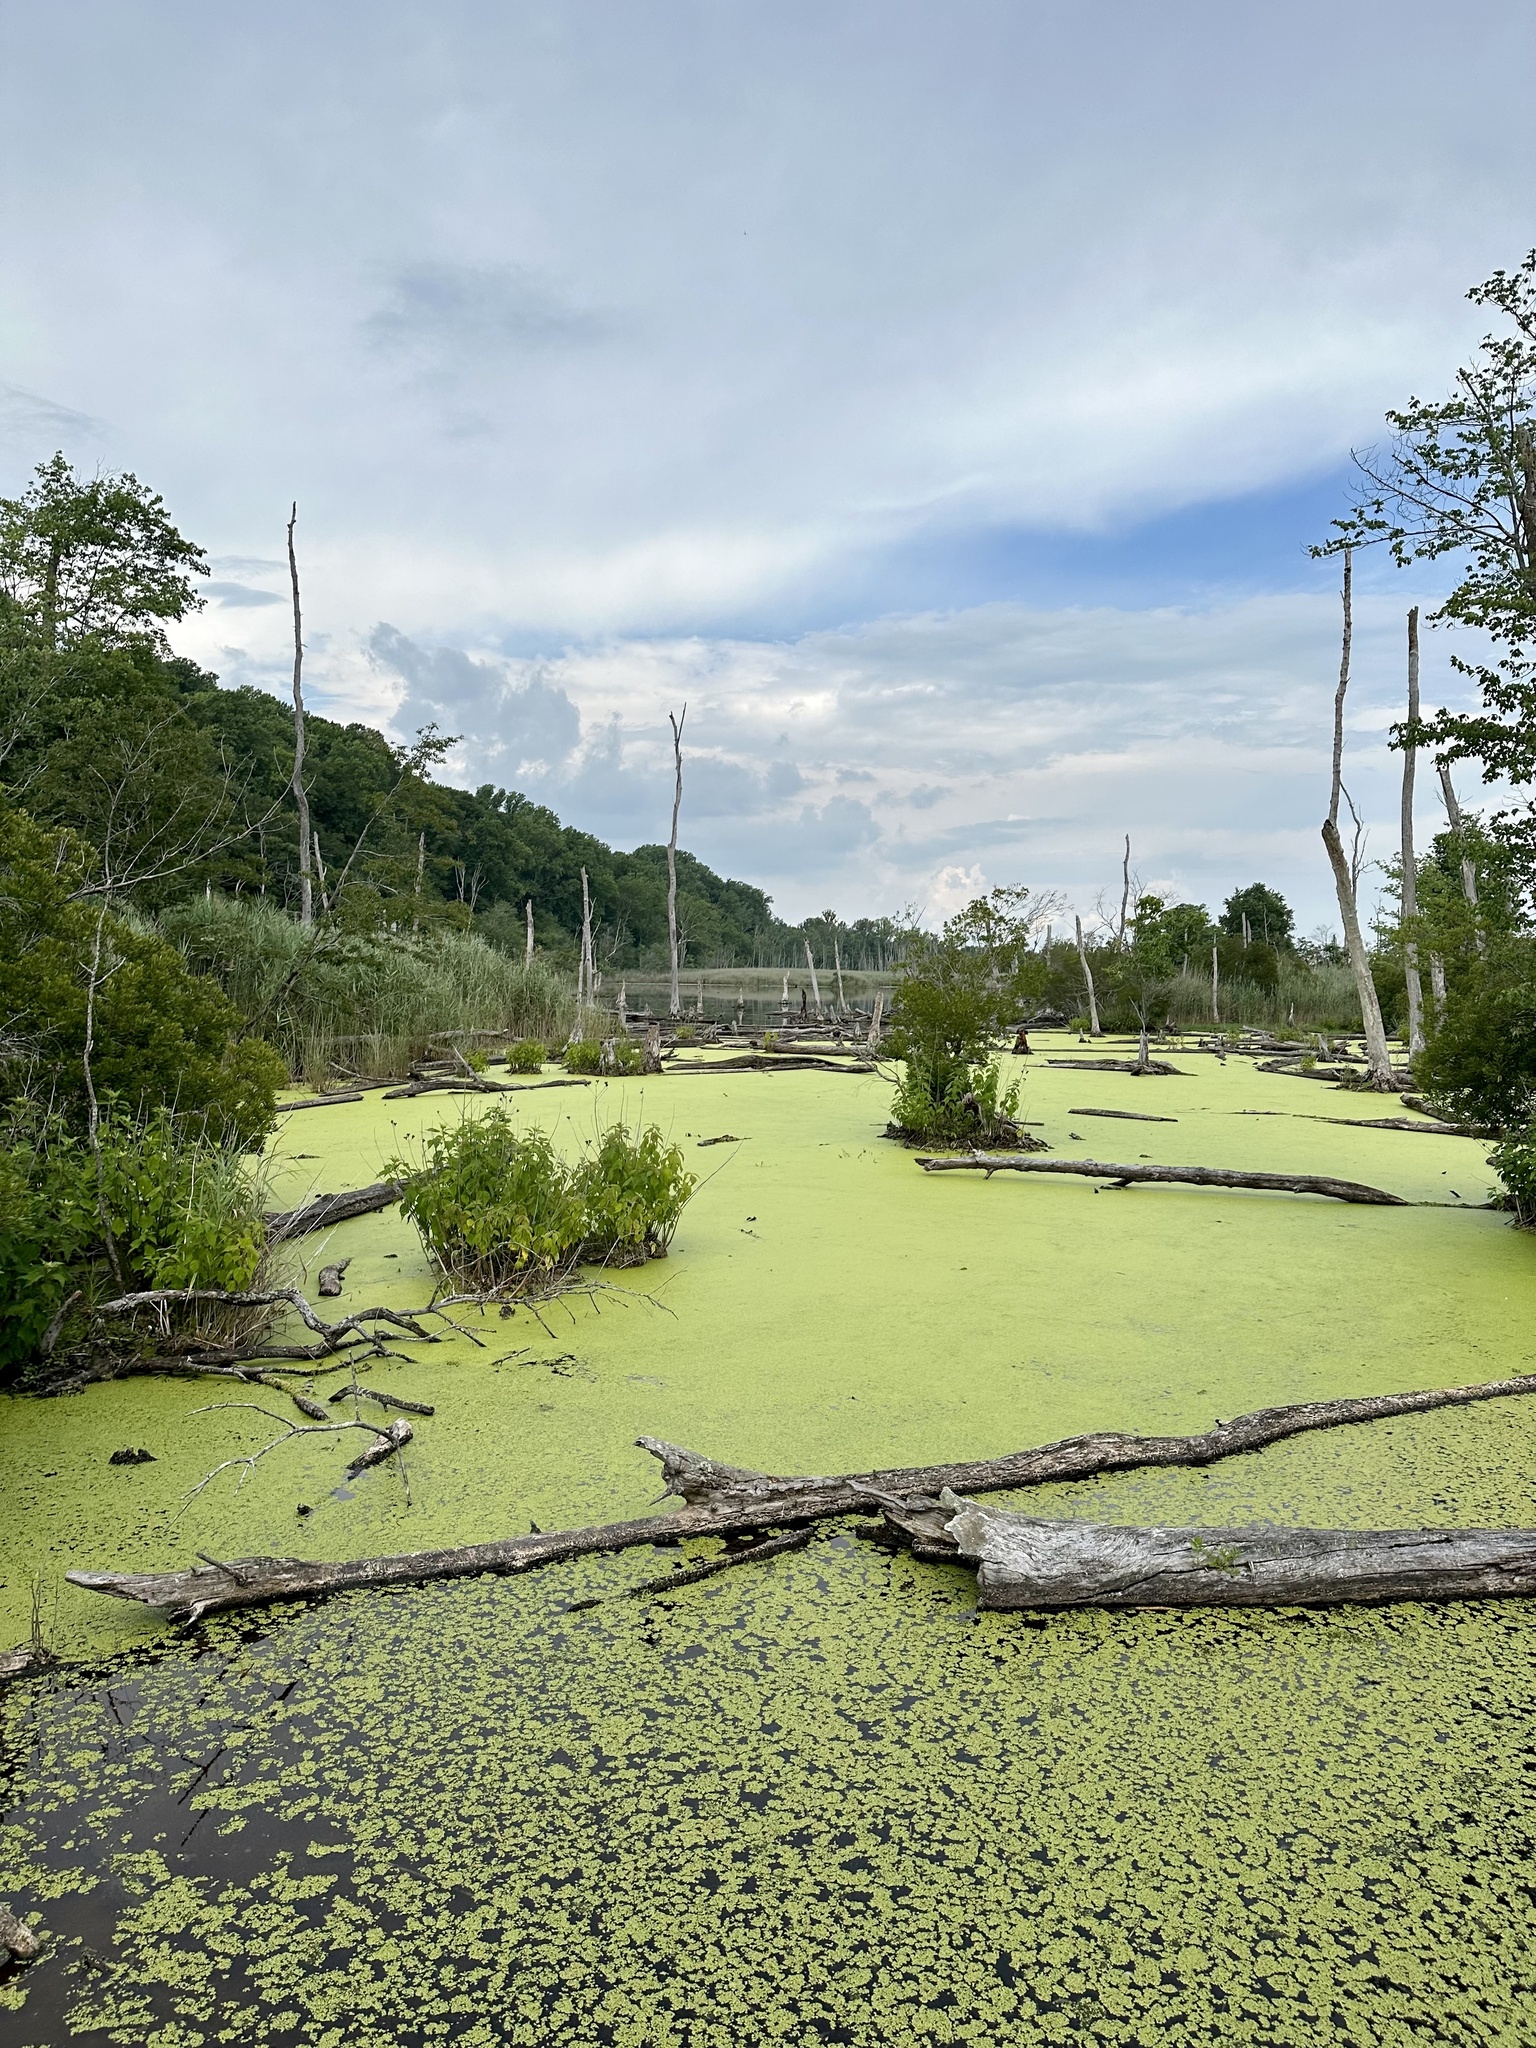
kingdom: Plantae
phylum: Tracheophyta
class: Liliopsida
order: Alismatales
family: Araceae
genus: Lemna
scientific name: Lemna minor
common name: Common duckweed
